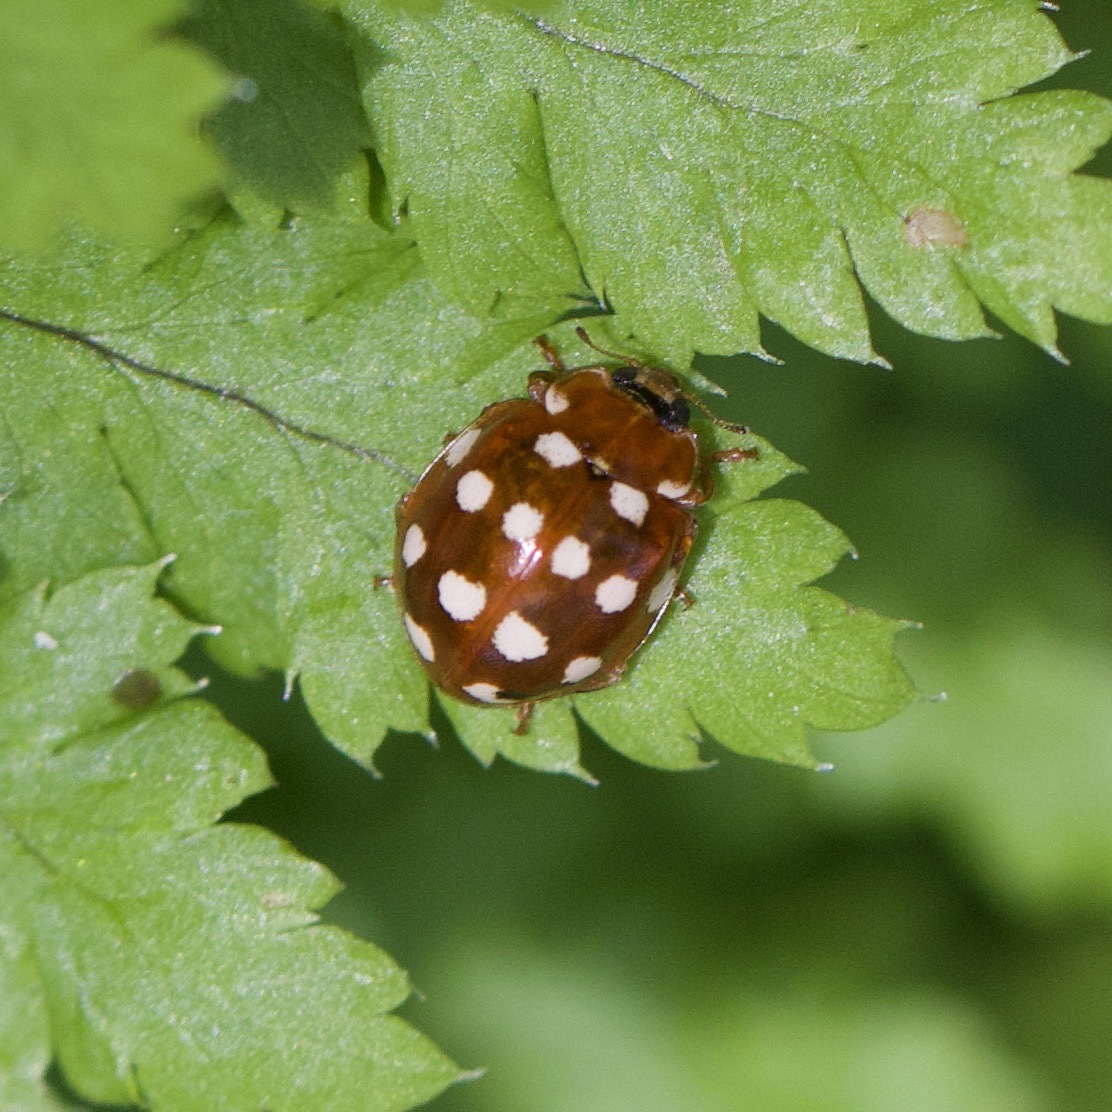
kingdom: Animalia
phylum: Arthropoda
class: Insecta
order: Coleoptera
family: Coccinellidae
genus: Calvia
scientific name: Calvia quatuordecimguttata
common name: Cream-spot ladybird
